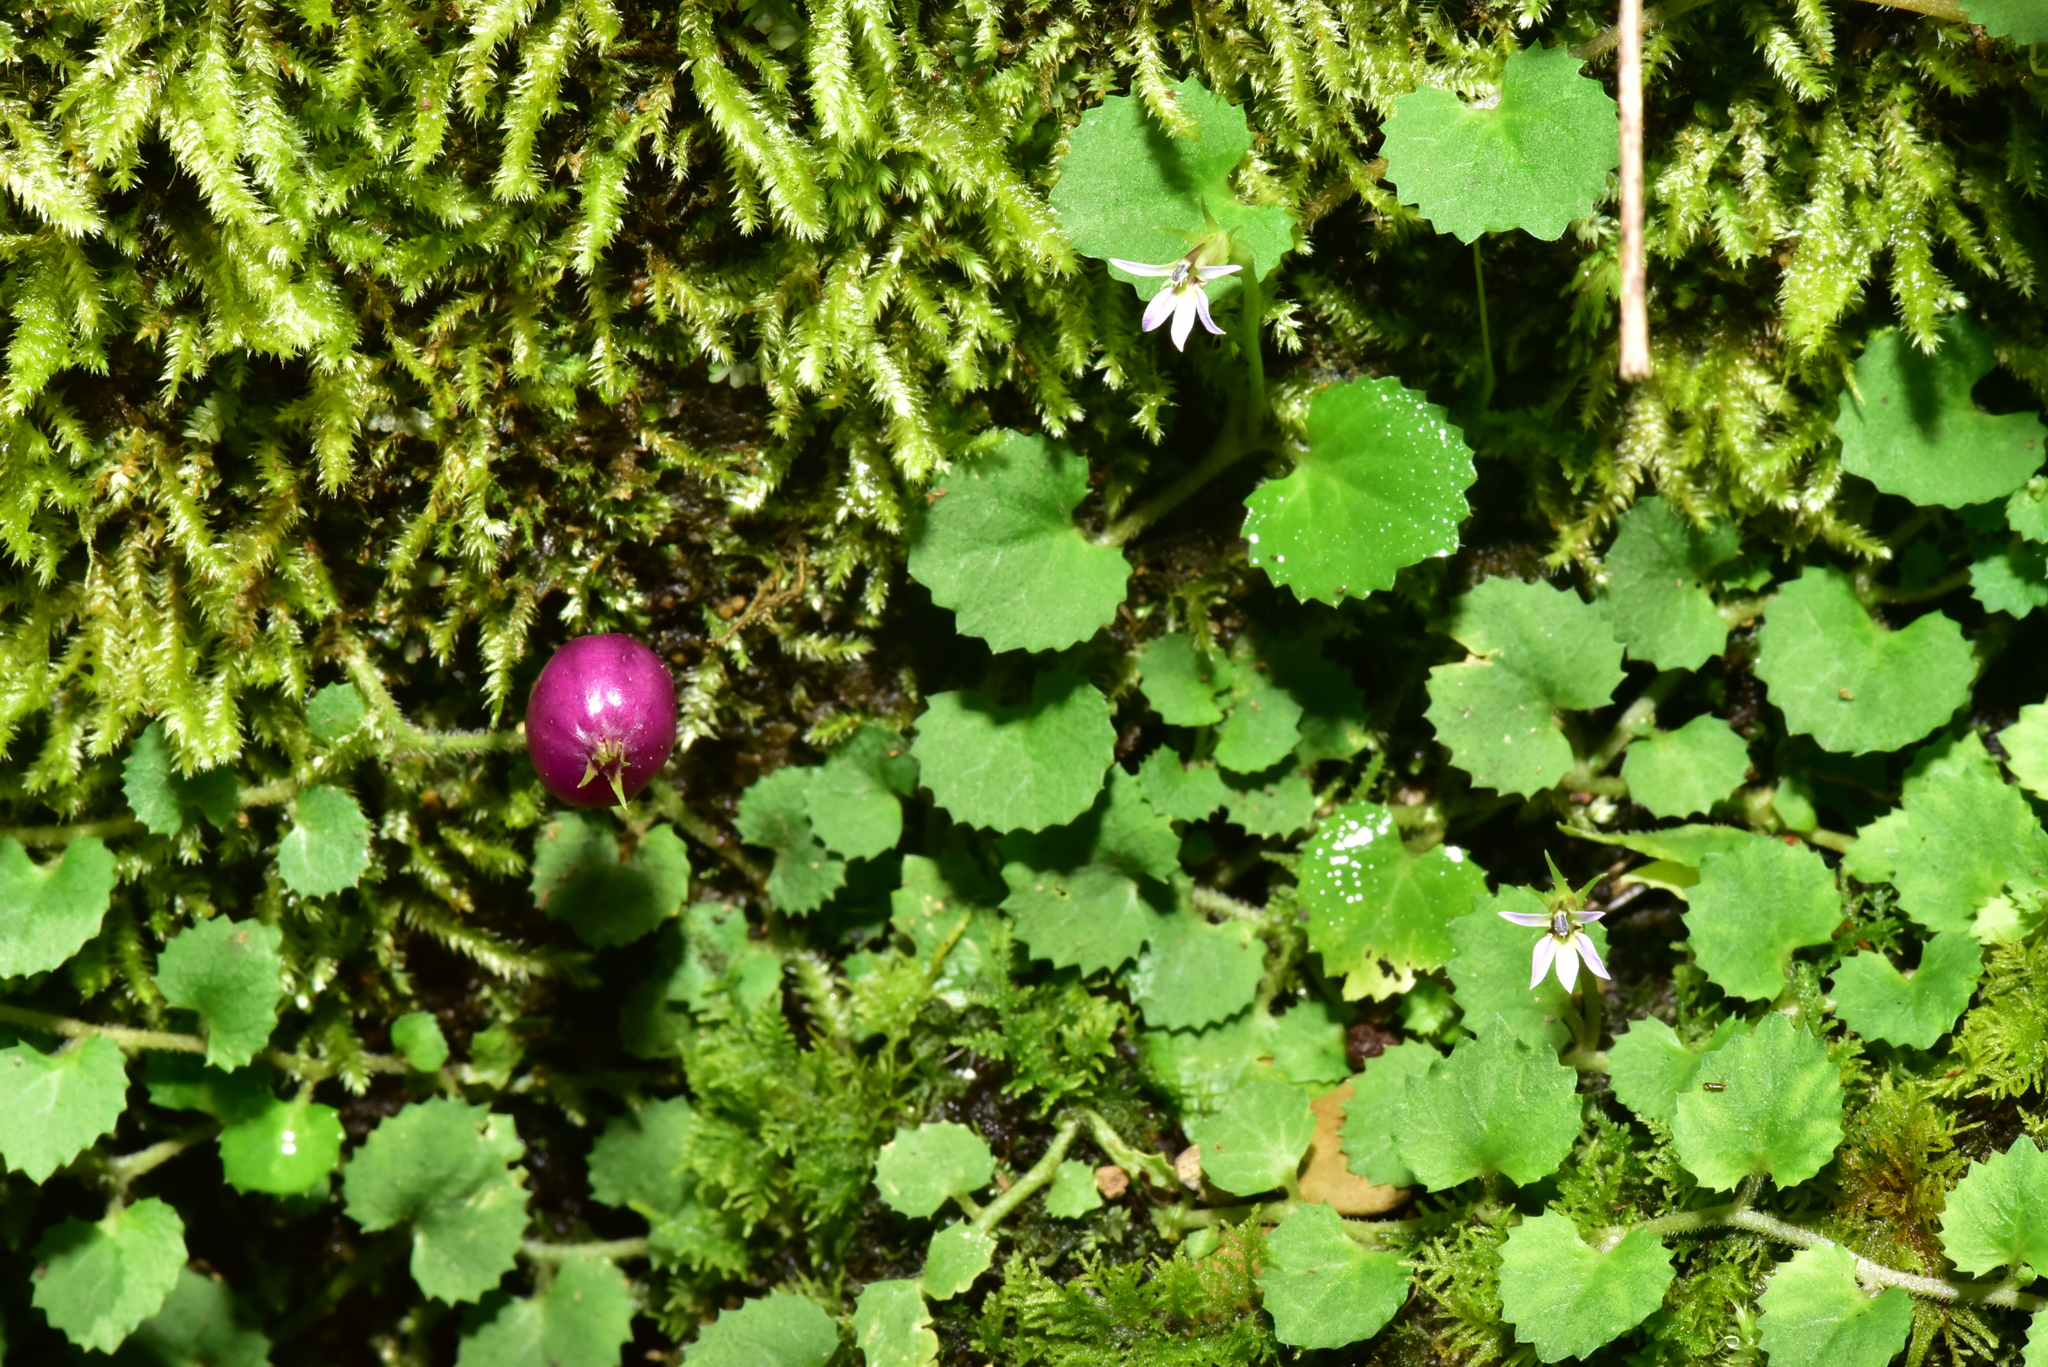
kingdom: Plantae
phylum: Tracheophyta
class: Magnoliopsida
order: Asterales
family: Campanulaceae
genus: Lobelia
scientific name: Lobelia nummularia
